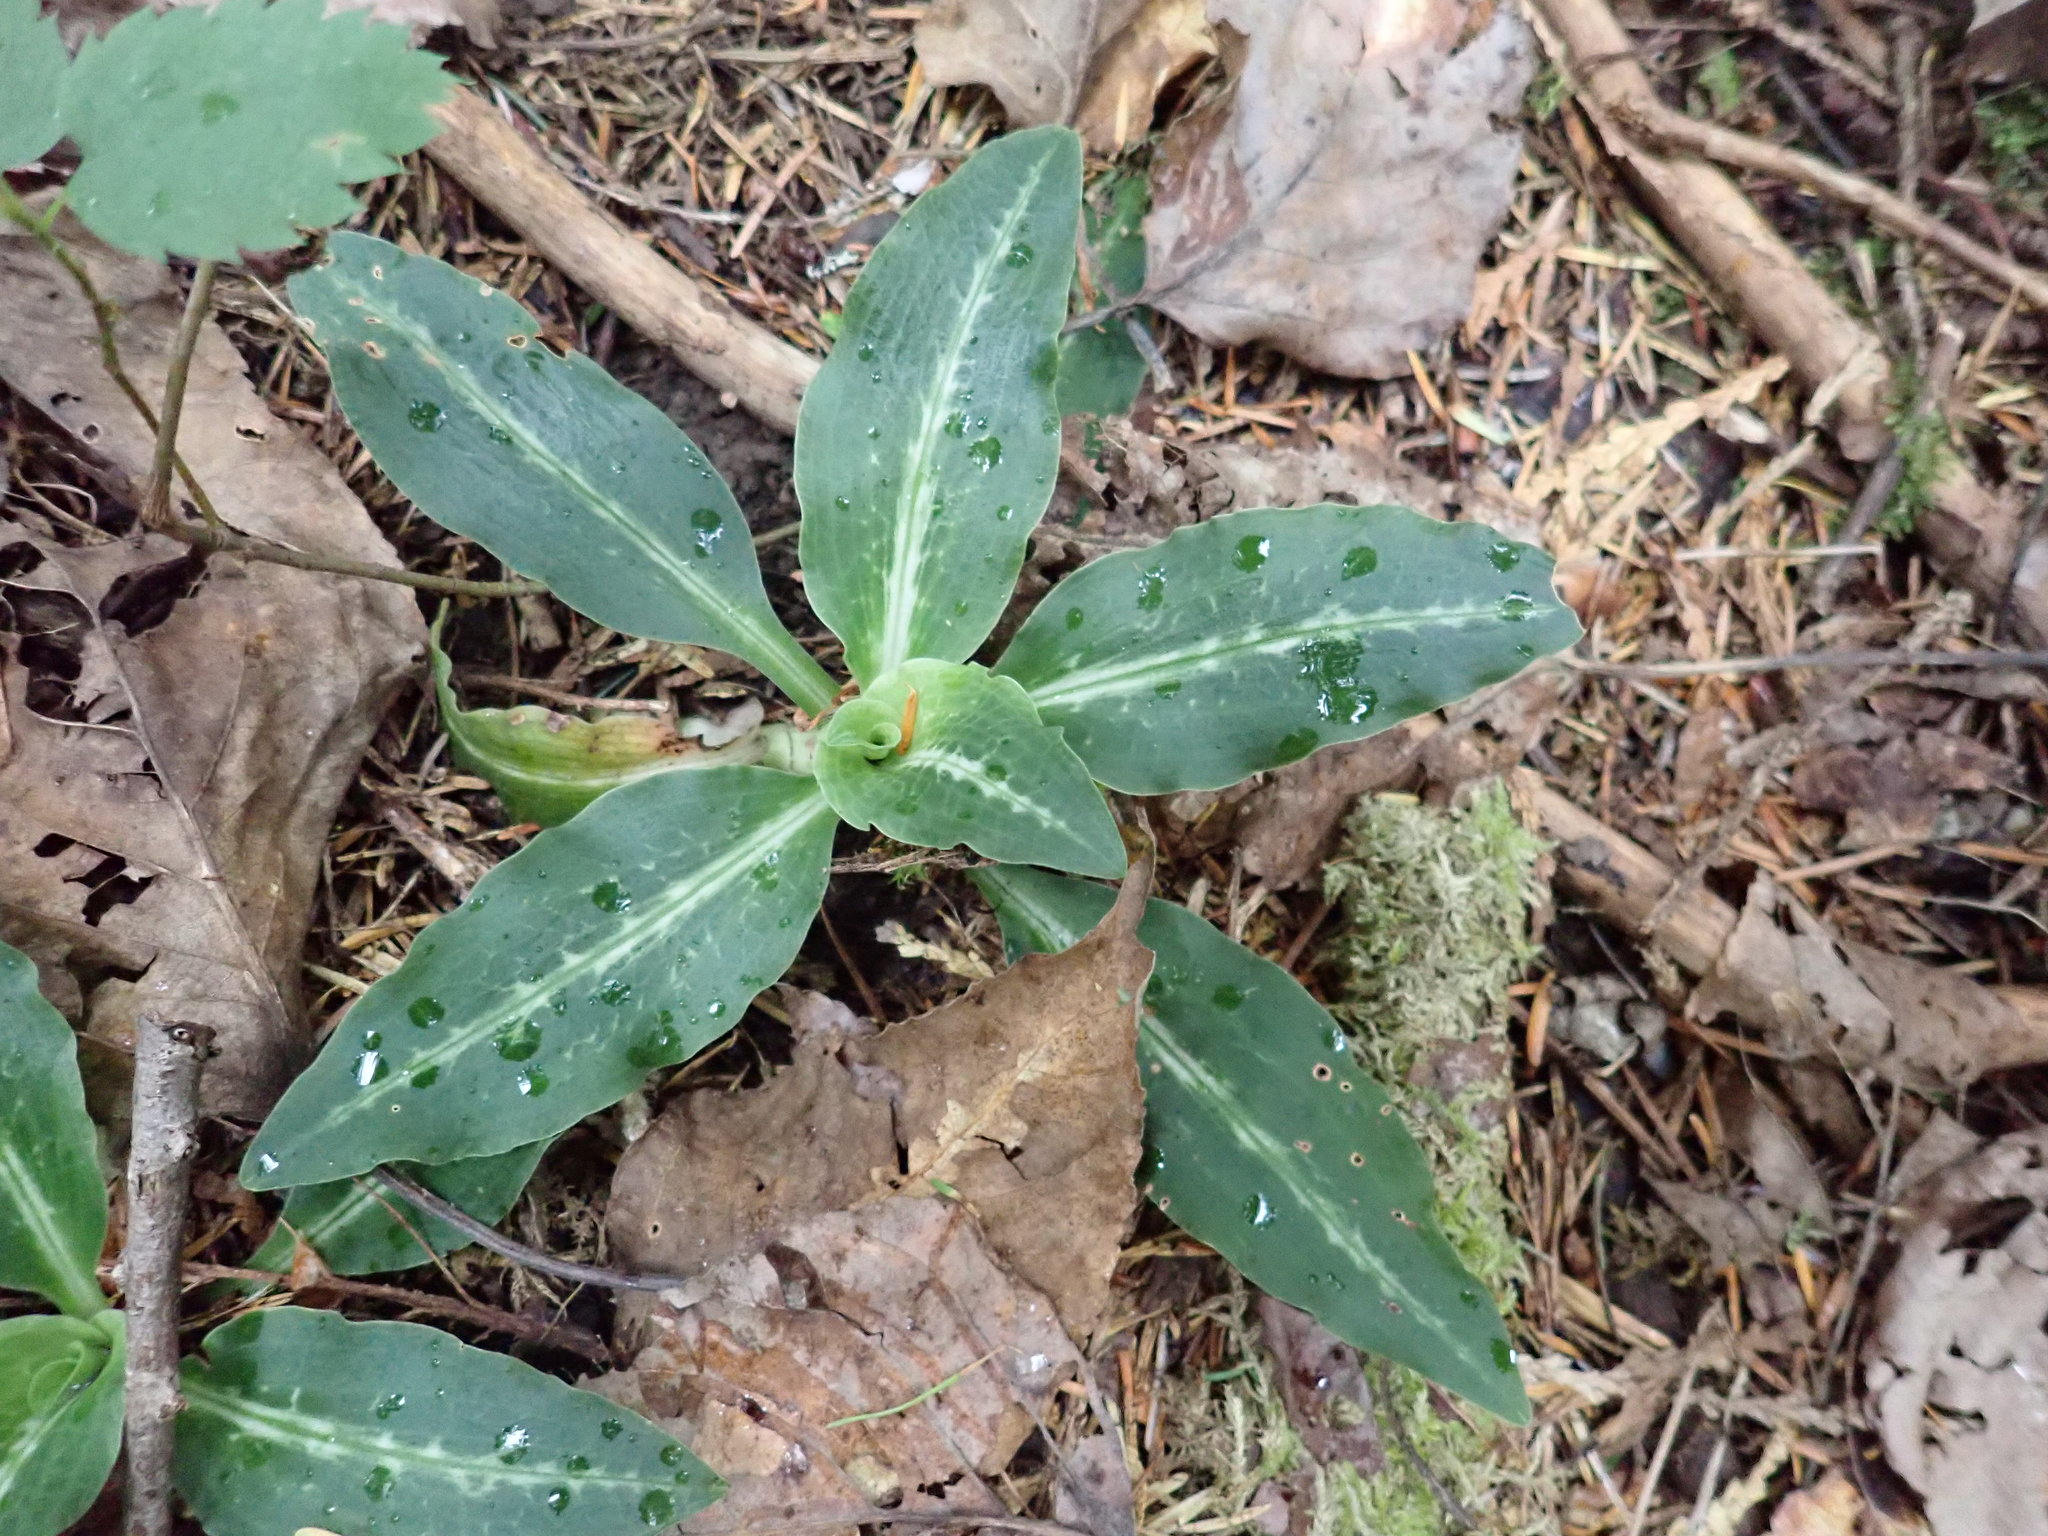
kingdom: Plantae
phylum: Tracheophyta
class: Liliopsida
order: Asparagales
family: Orchidaceae
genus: Goodyera
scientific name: Goodyera oblongifolia
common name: Giant rattlesnake-plantain
